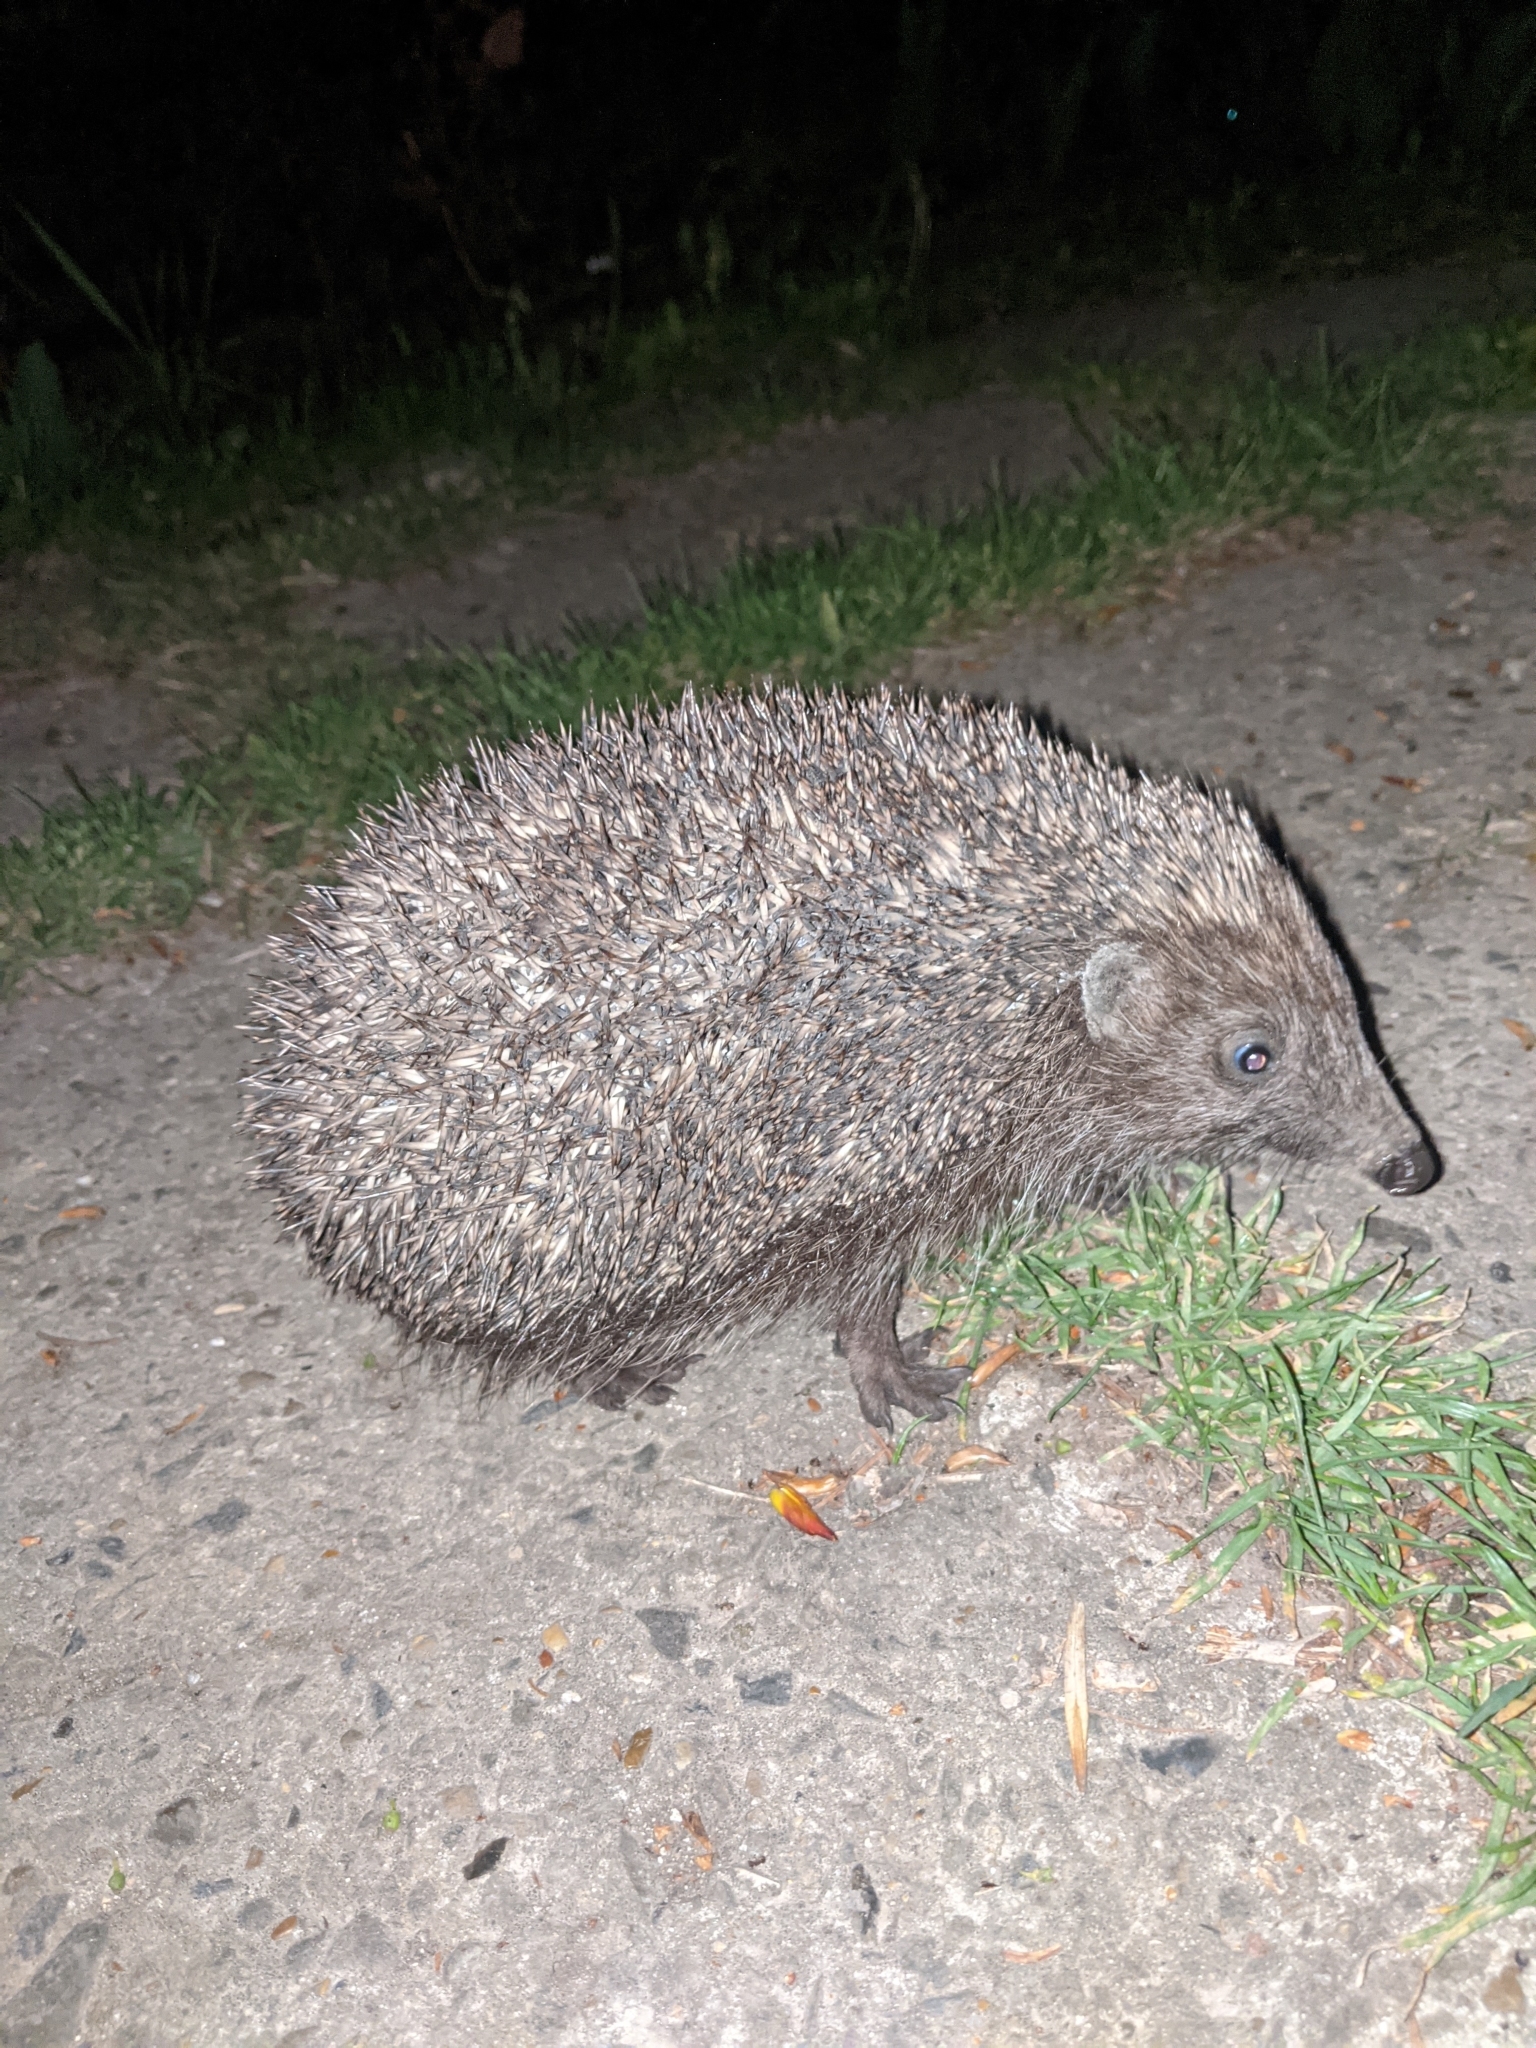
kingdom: Animalia
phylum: Chordata
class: Mammalia
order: Erinaceomorpha
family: Erinaceidae
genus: Erinaceus
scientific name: Erinaceus roumanicus
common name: Northern white-breasted hedgehog
